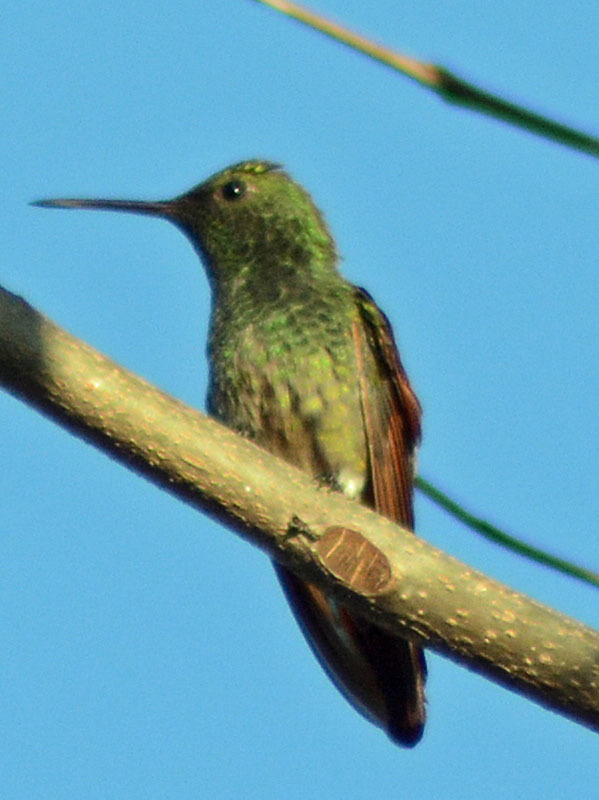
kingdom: Animalia
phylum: Chordata
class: Aves
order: Apodiformes
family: Trochilidae
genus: Saucerottia
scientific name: Saucerottia beryllina
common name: Berylline hummingbird
